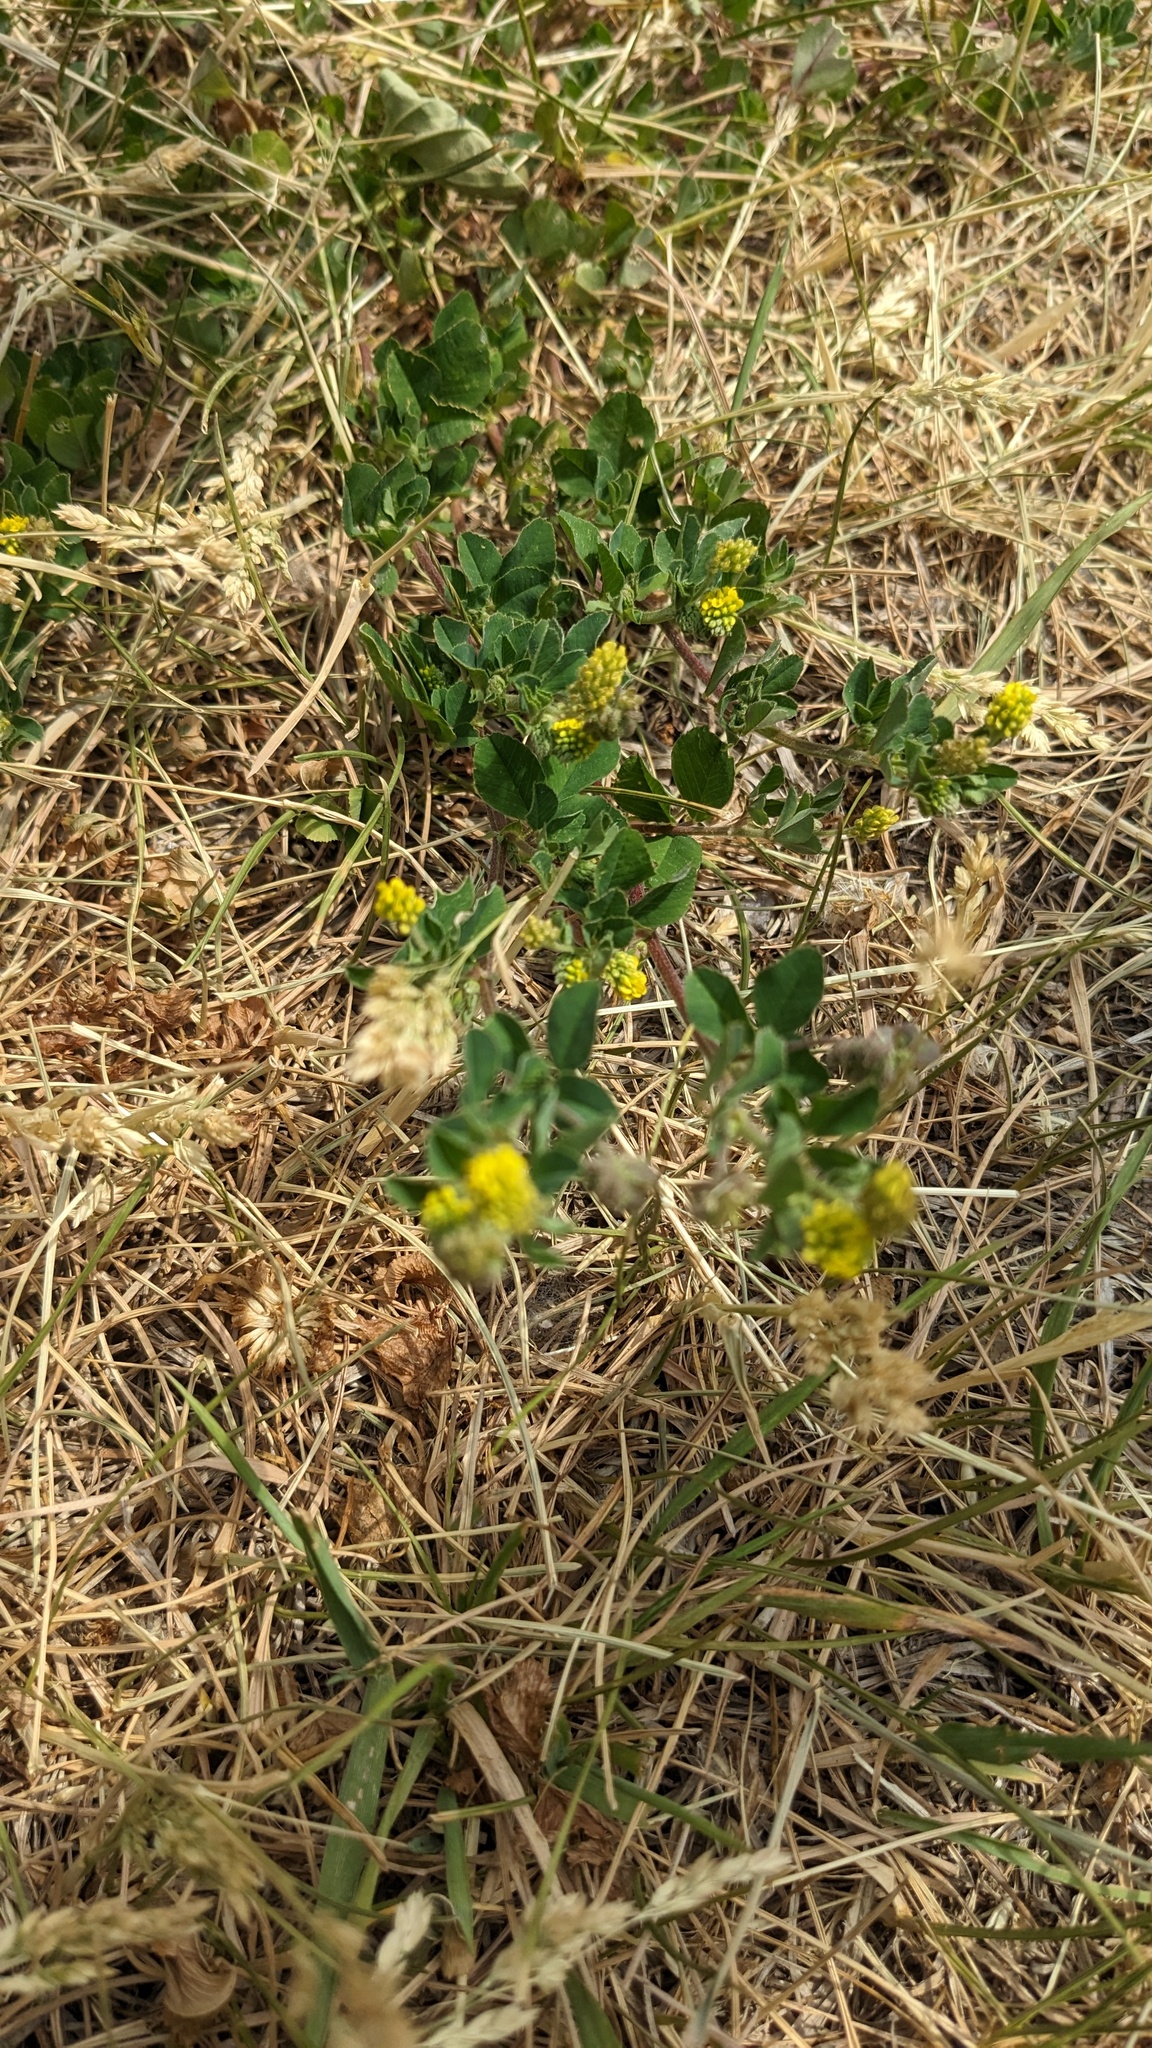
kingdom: Plantae
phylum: Tracheophyta
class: Magnoliopsida
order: Fabales
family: Fabaceae
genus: Medicago
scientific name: Medicago lupulina
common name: Black medick
